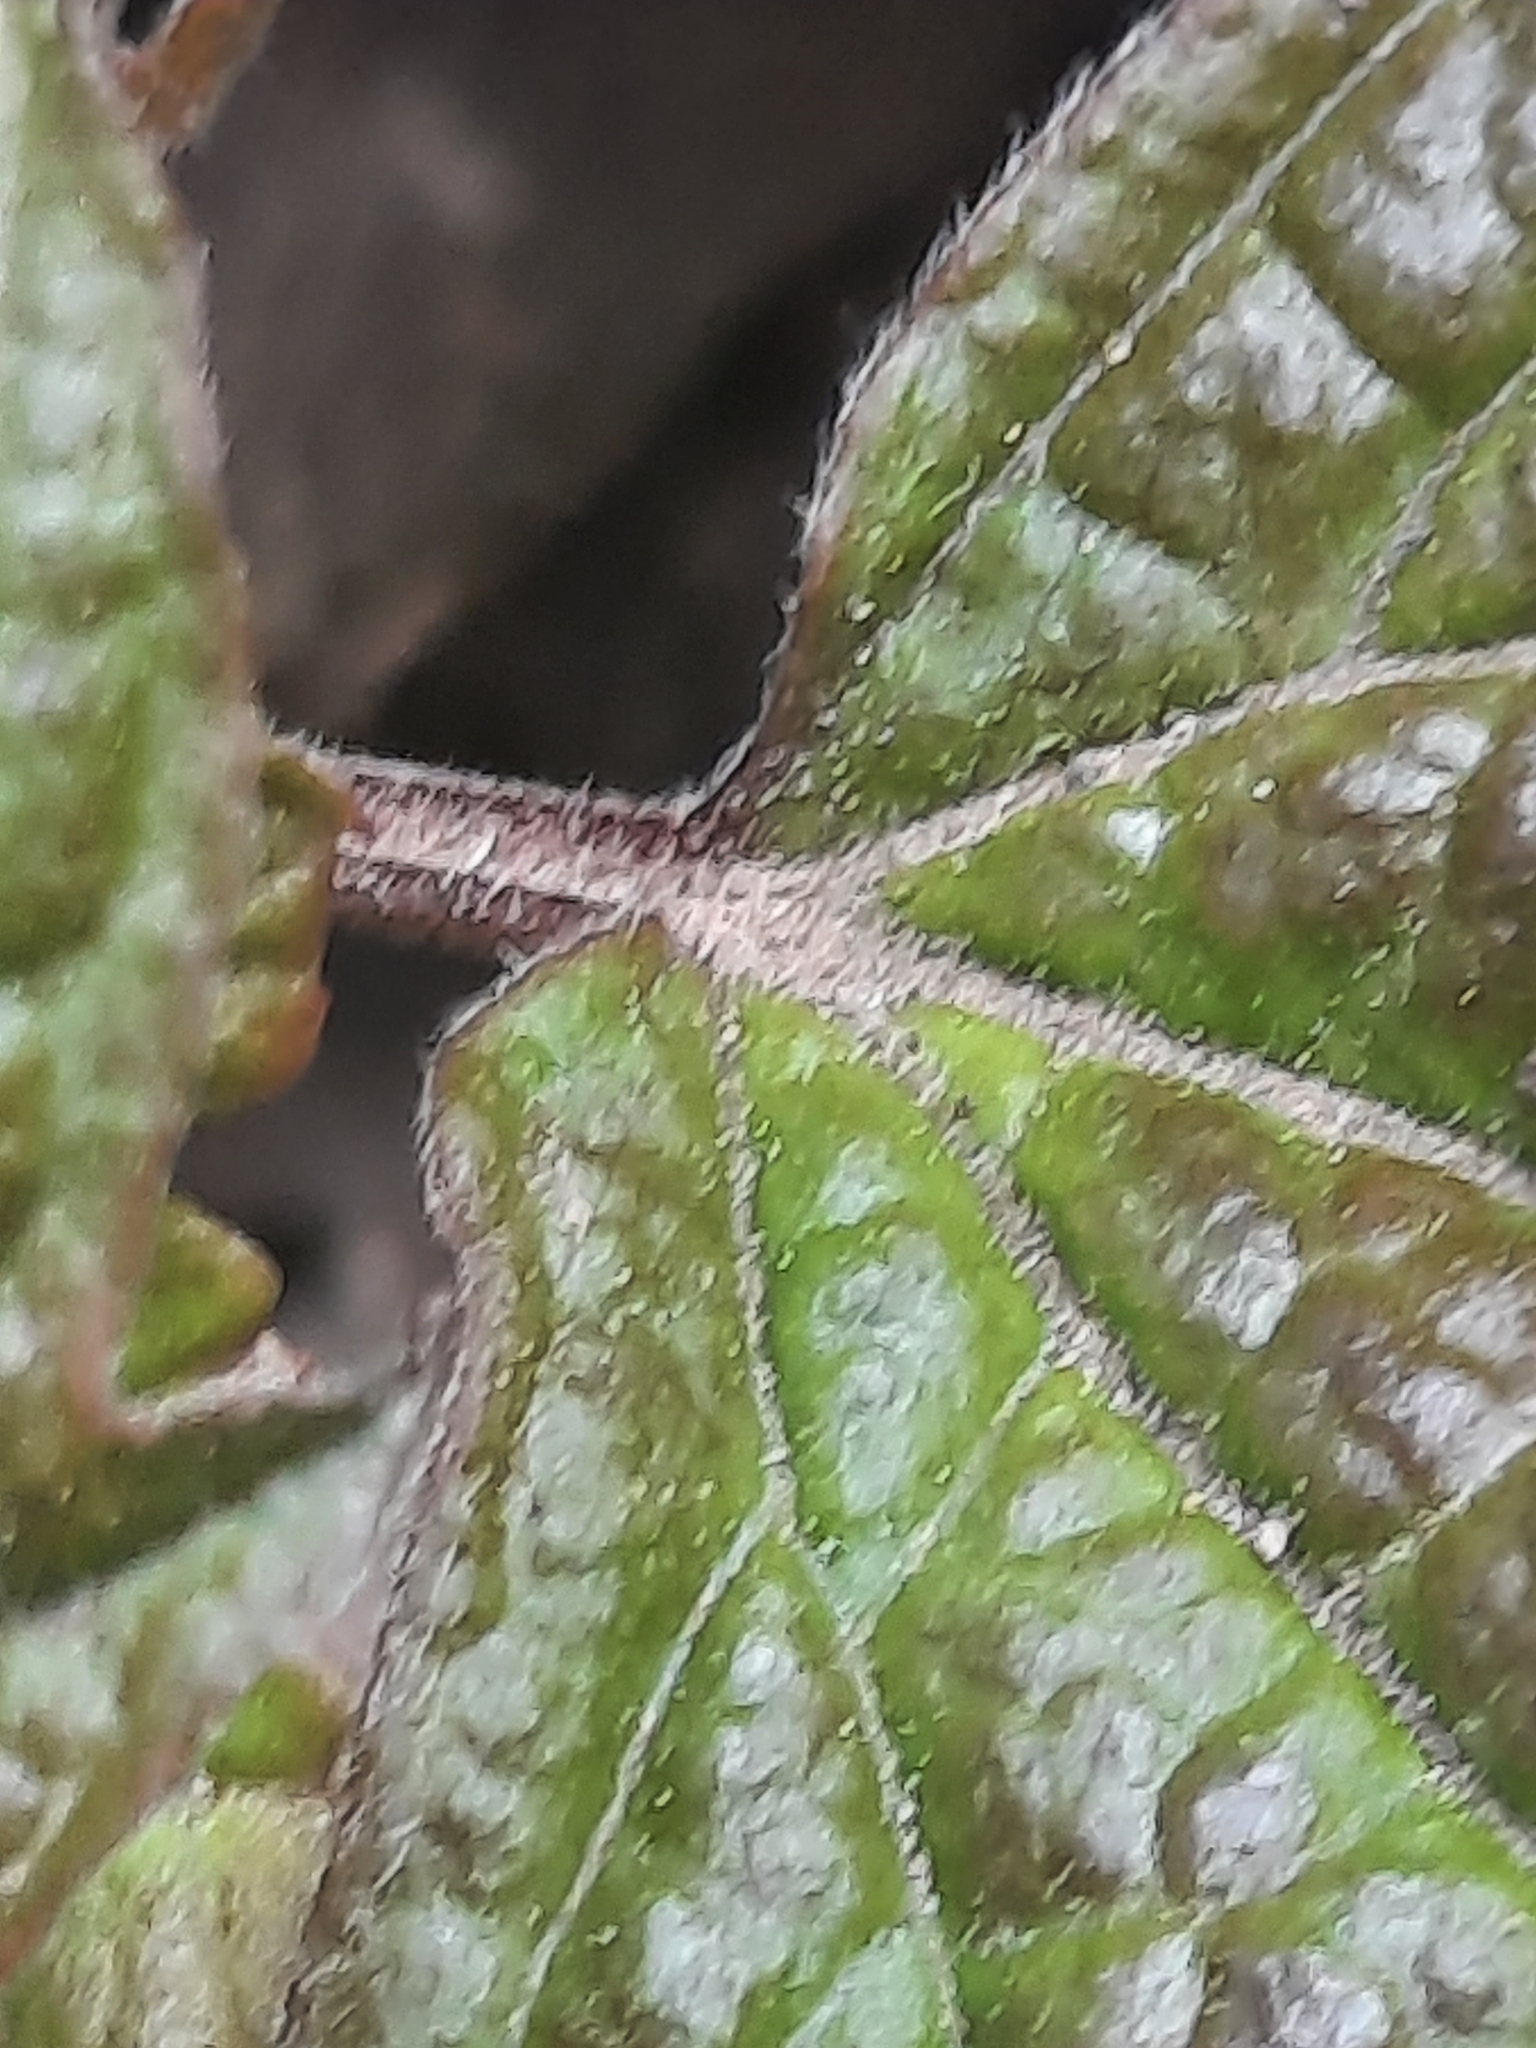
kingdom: Plantae
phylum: Tracheophyta
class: Magnoliopsida
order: Dipsacales
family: Viburnaceae
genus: Viburnum
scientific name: Viburnum acerifolium
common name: Dockmackie
